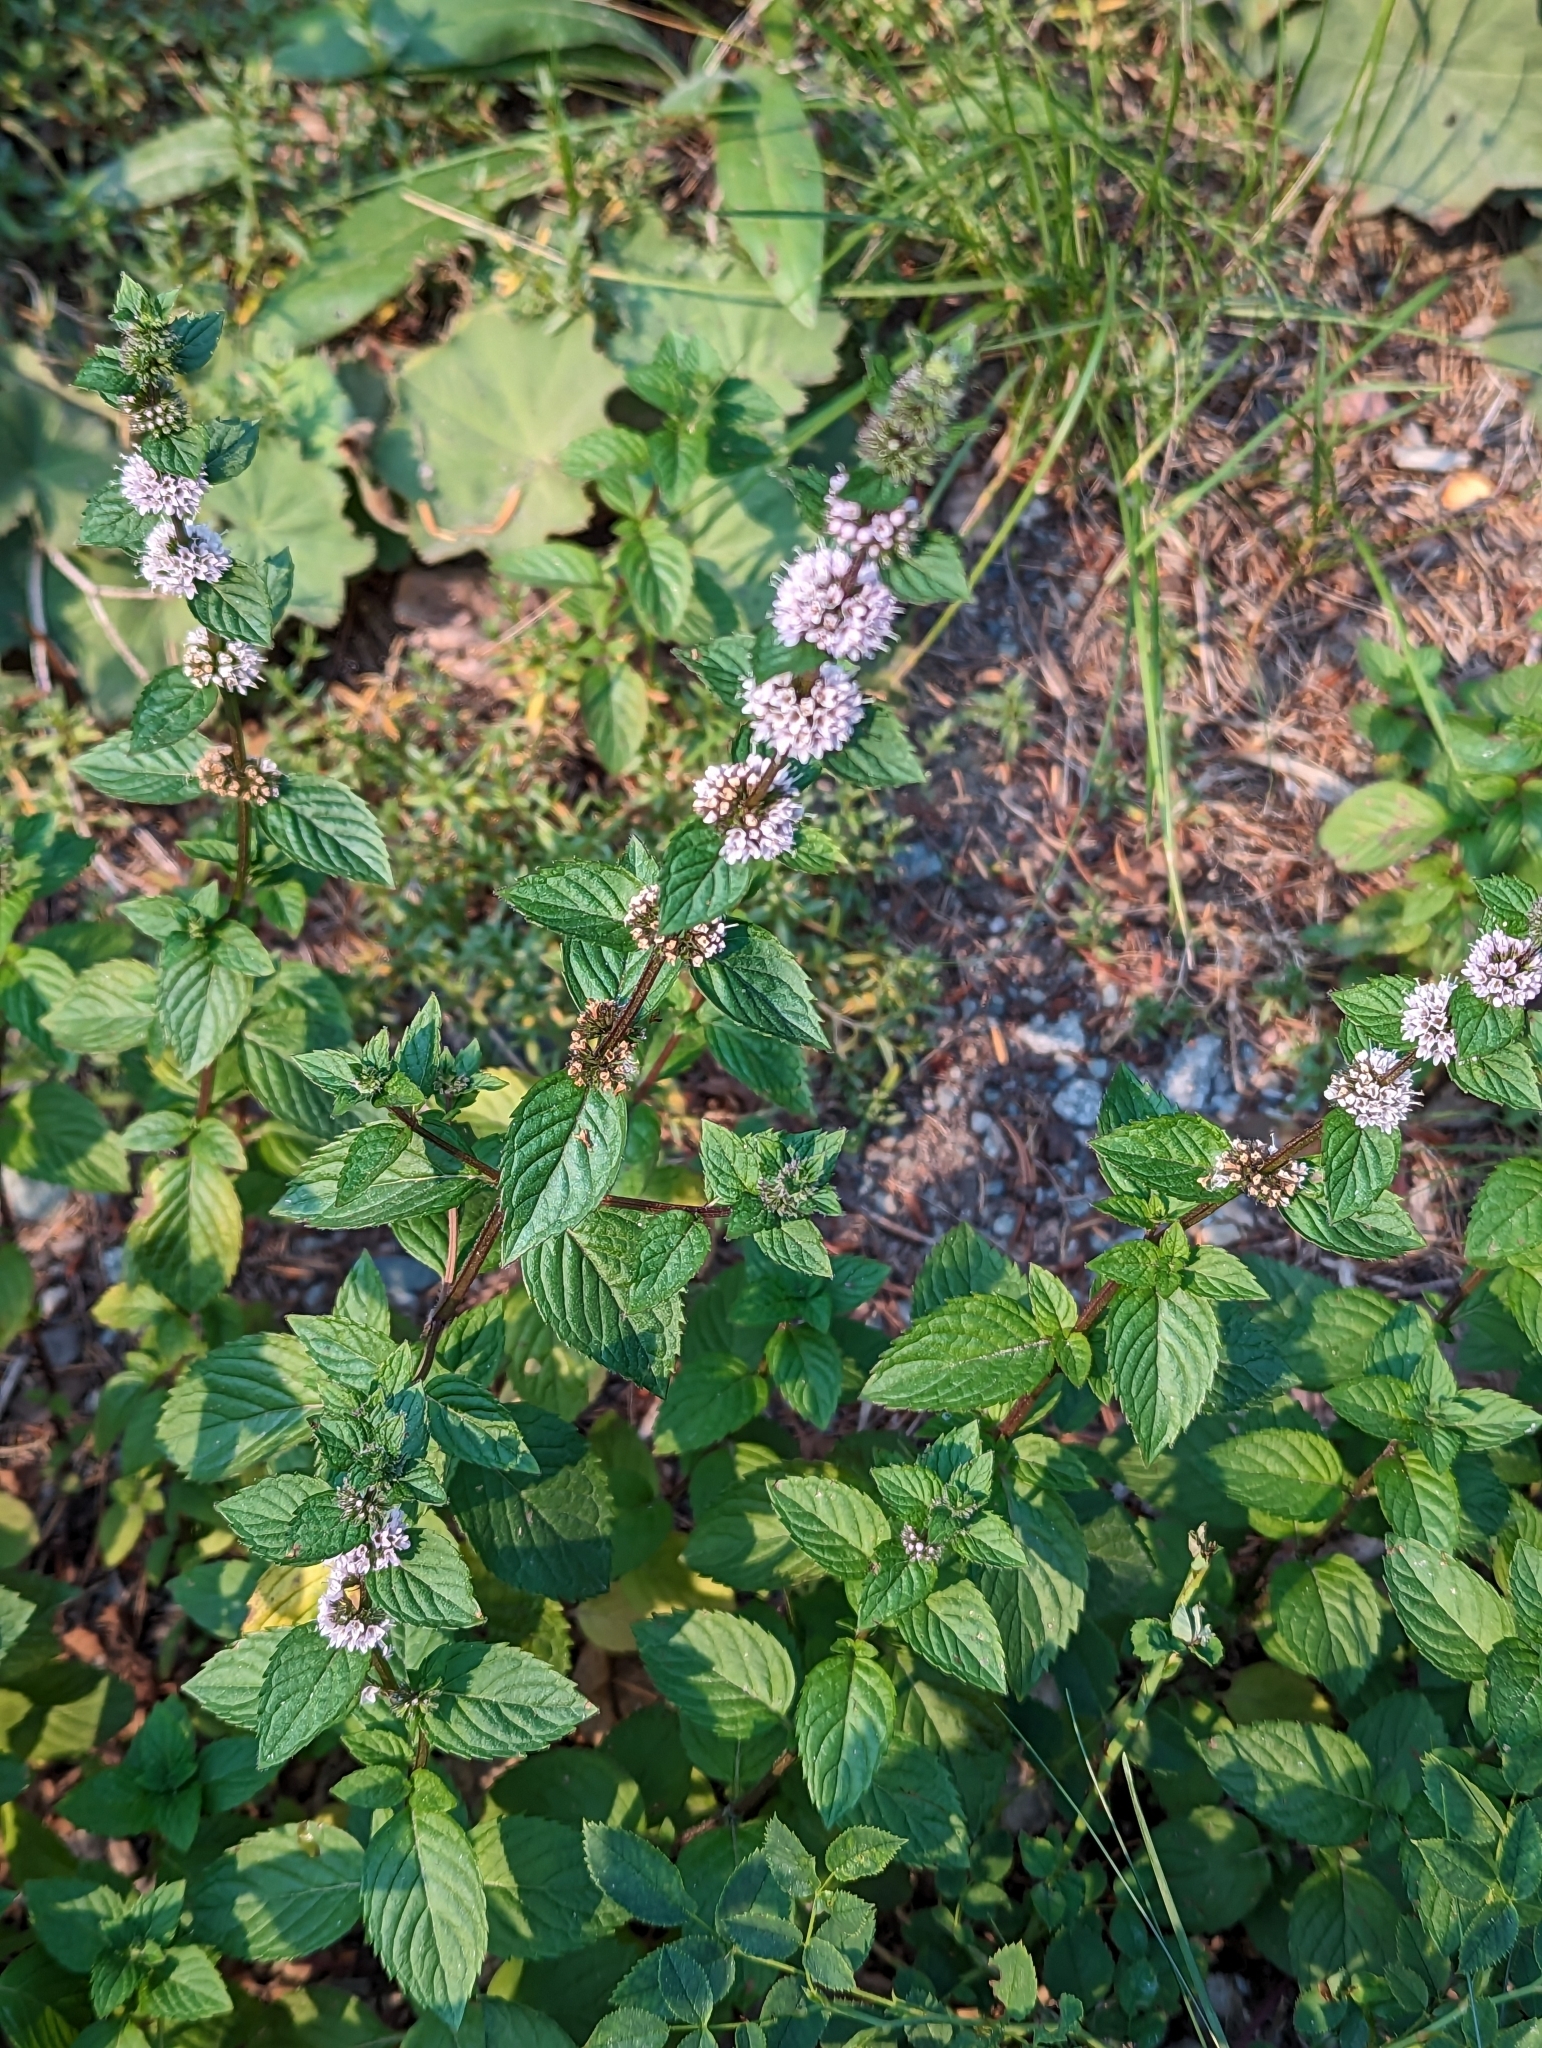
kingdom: Plantae
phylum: Tracheophyta
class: Magnoliopsida
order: Lamiales
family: Lamiaceae
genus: Mentha
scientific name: Mentha canadensis
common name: American corn mint
